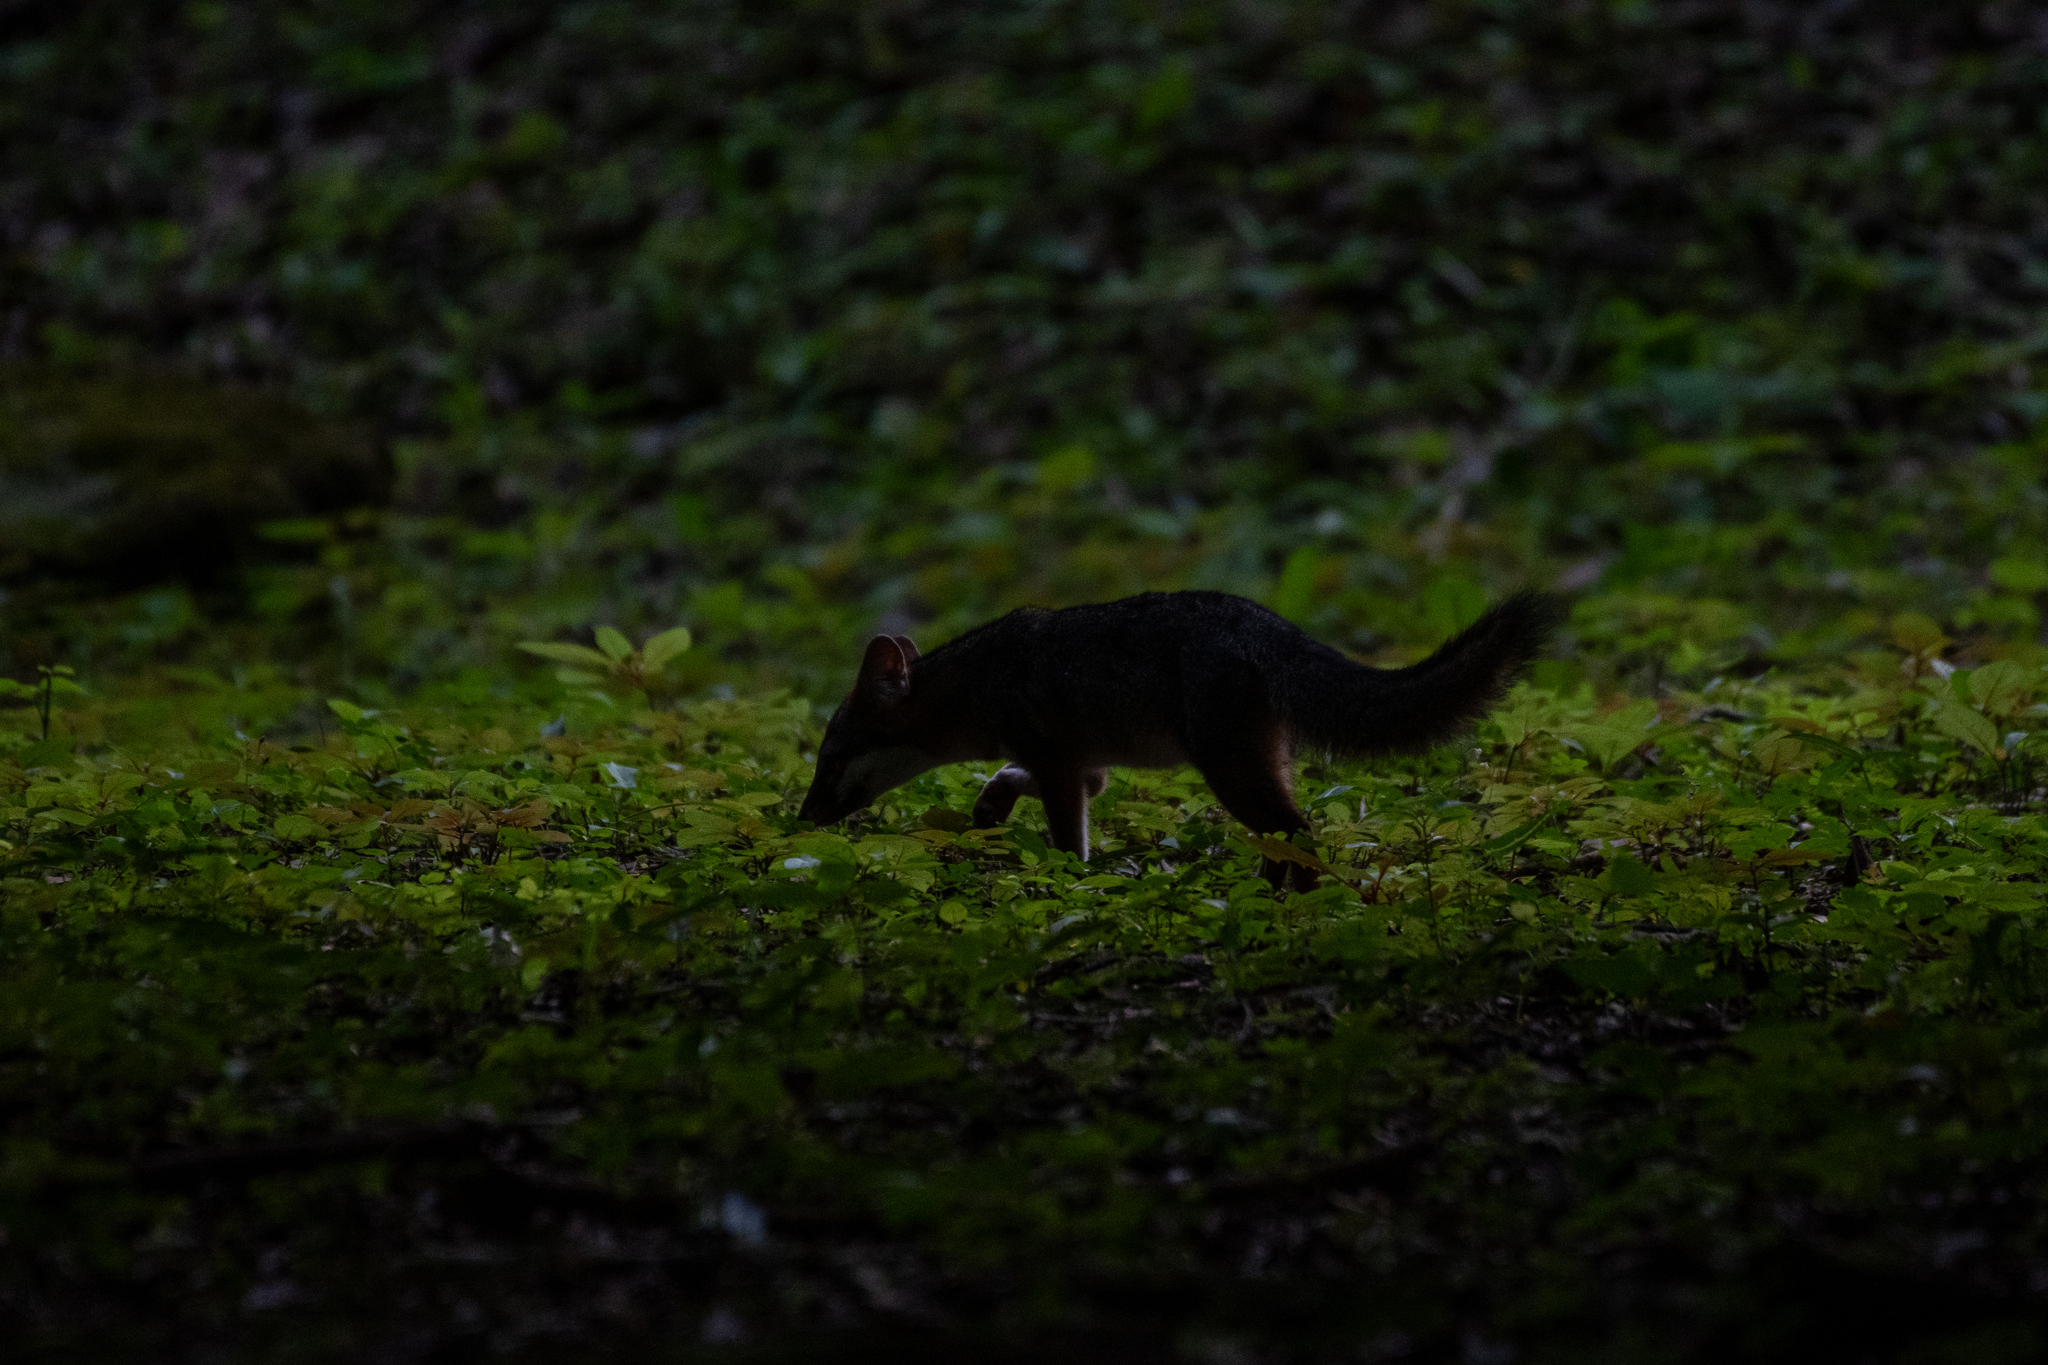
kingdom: Animalia
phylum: Chordata
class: Mammalia
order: Carnivora
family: Canidae
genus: Urocyon
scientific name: Urocyon cinereoargenteus
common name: Gray fox
